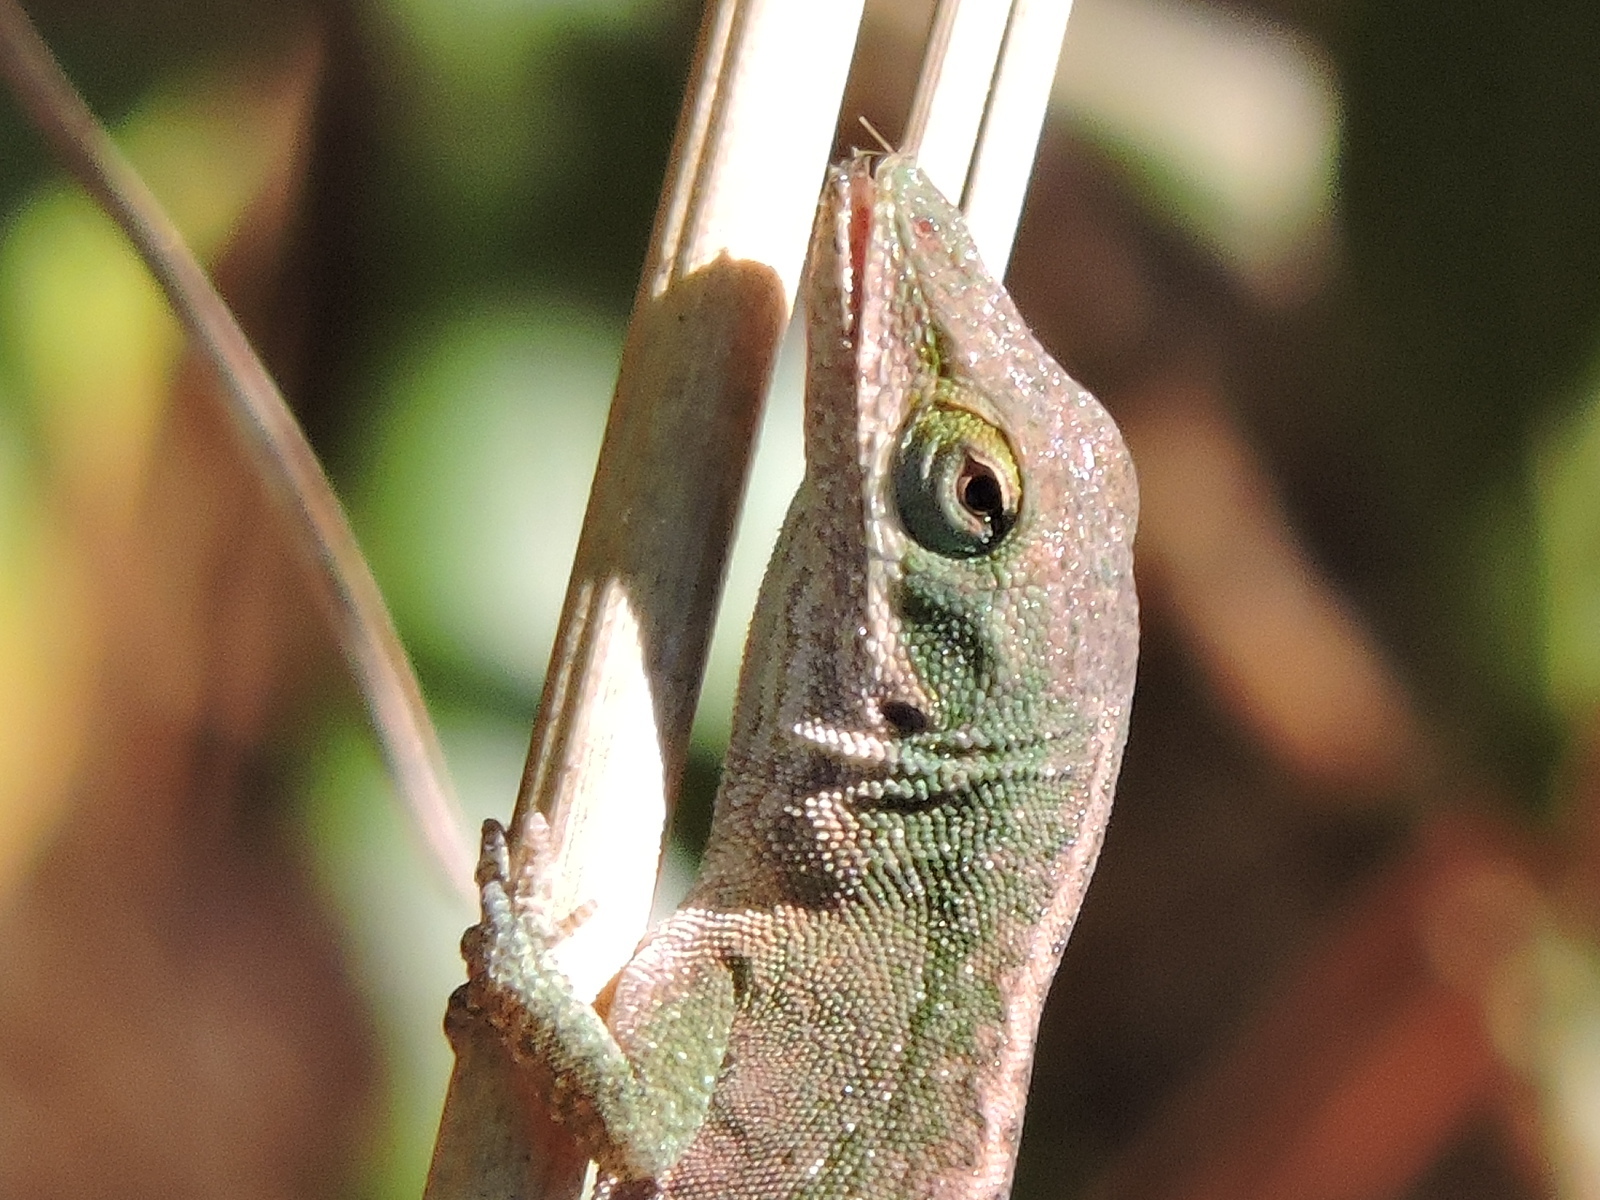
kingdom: Animalia
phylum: Chordata
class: Squamata
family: Dactyloidae
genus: Anolis
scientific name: Anolis carolinensis
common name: Green anole
